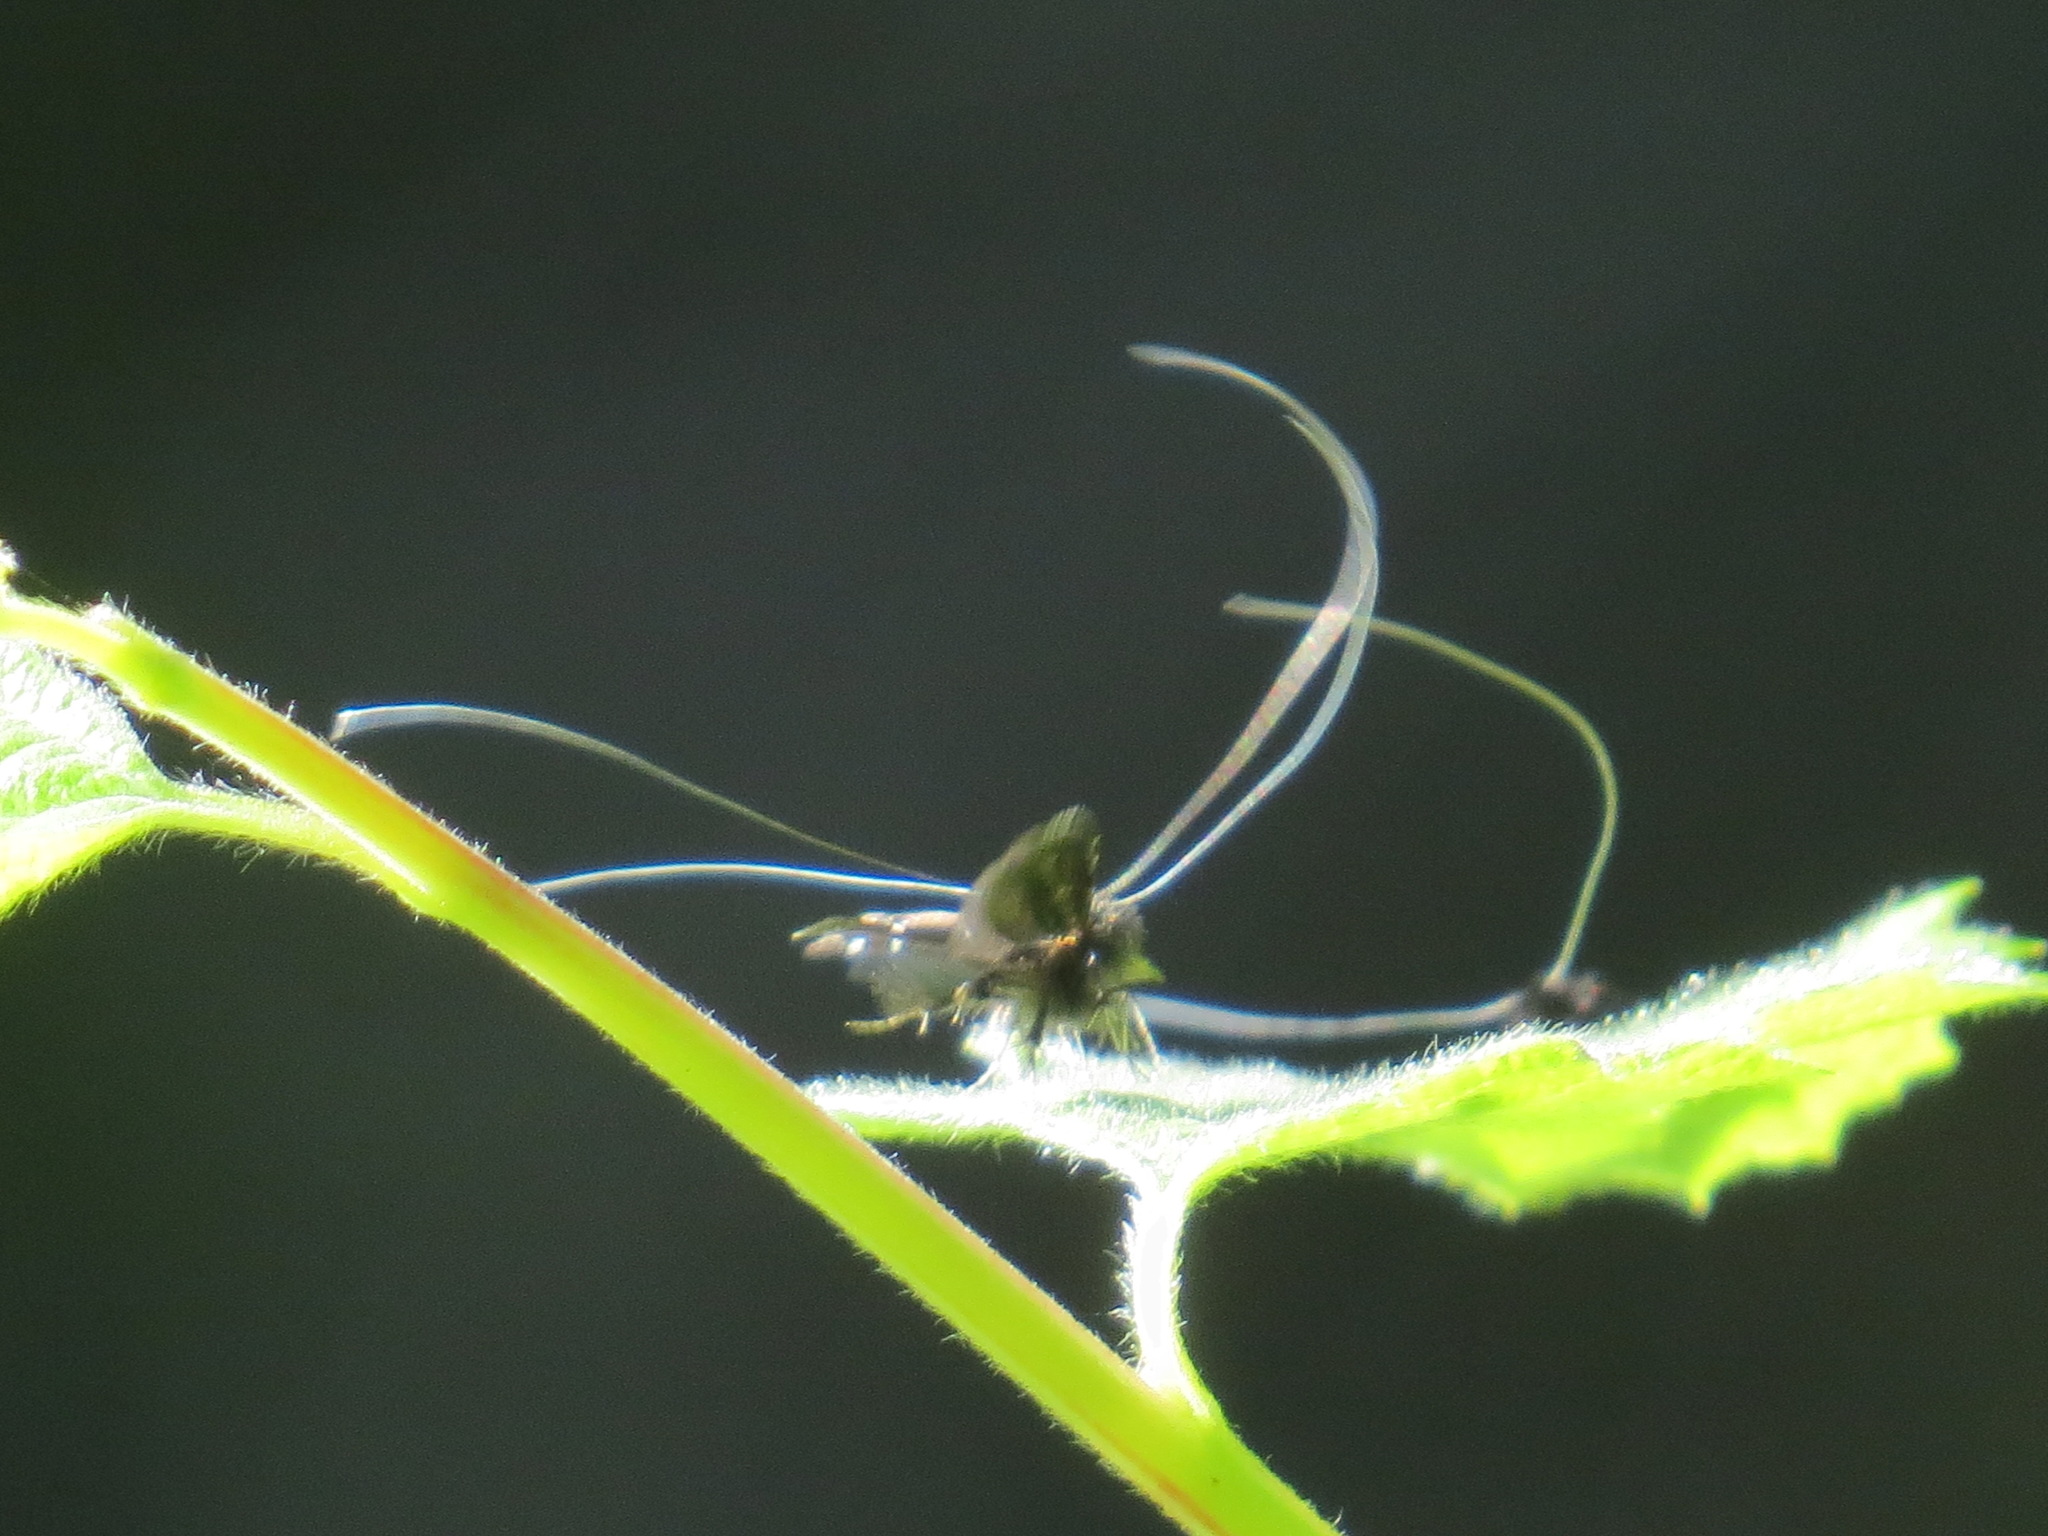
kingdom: Animalia
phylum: Arthropoda
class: Insecta
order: Lepidoptera
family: Adelidae
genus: Adela
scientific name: Adela septentrionella
